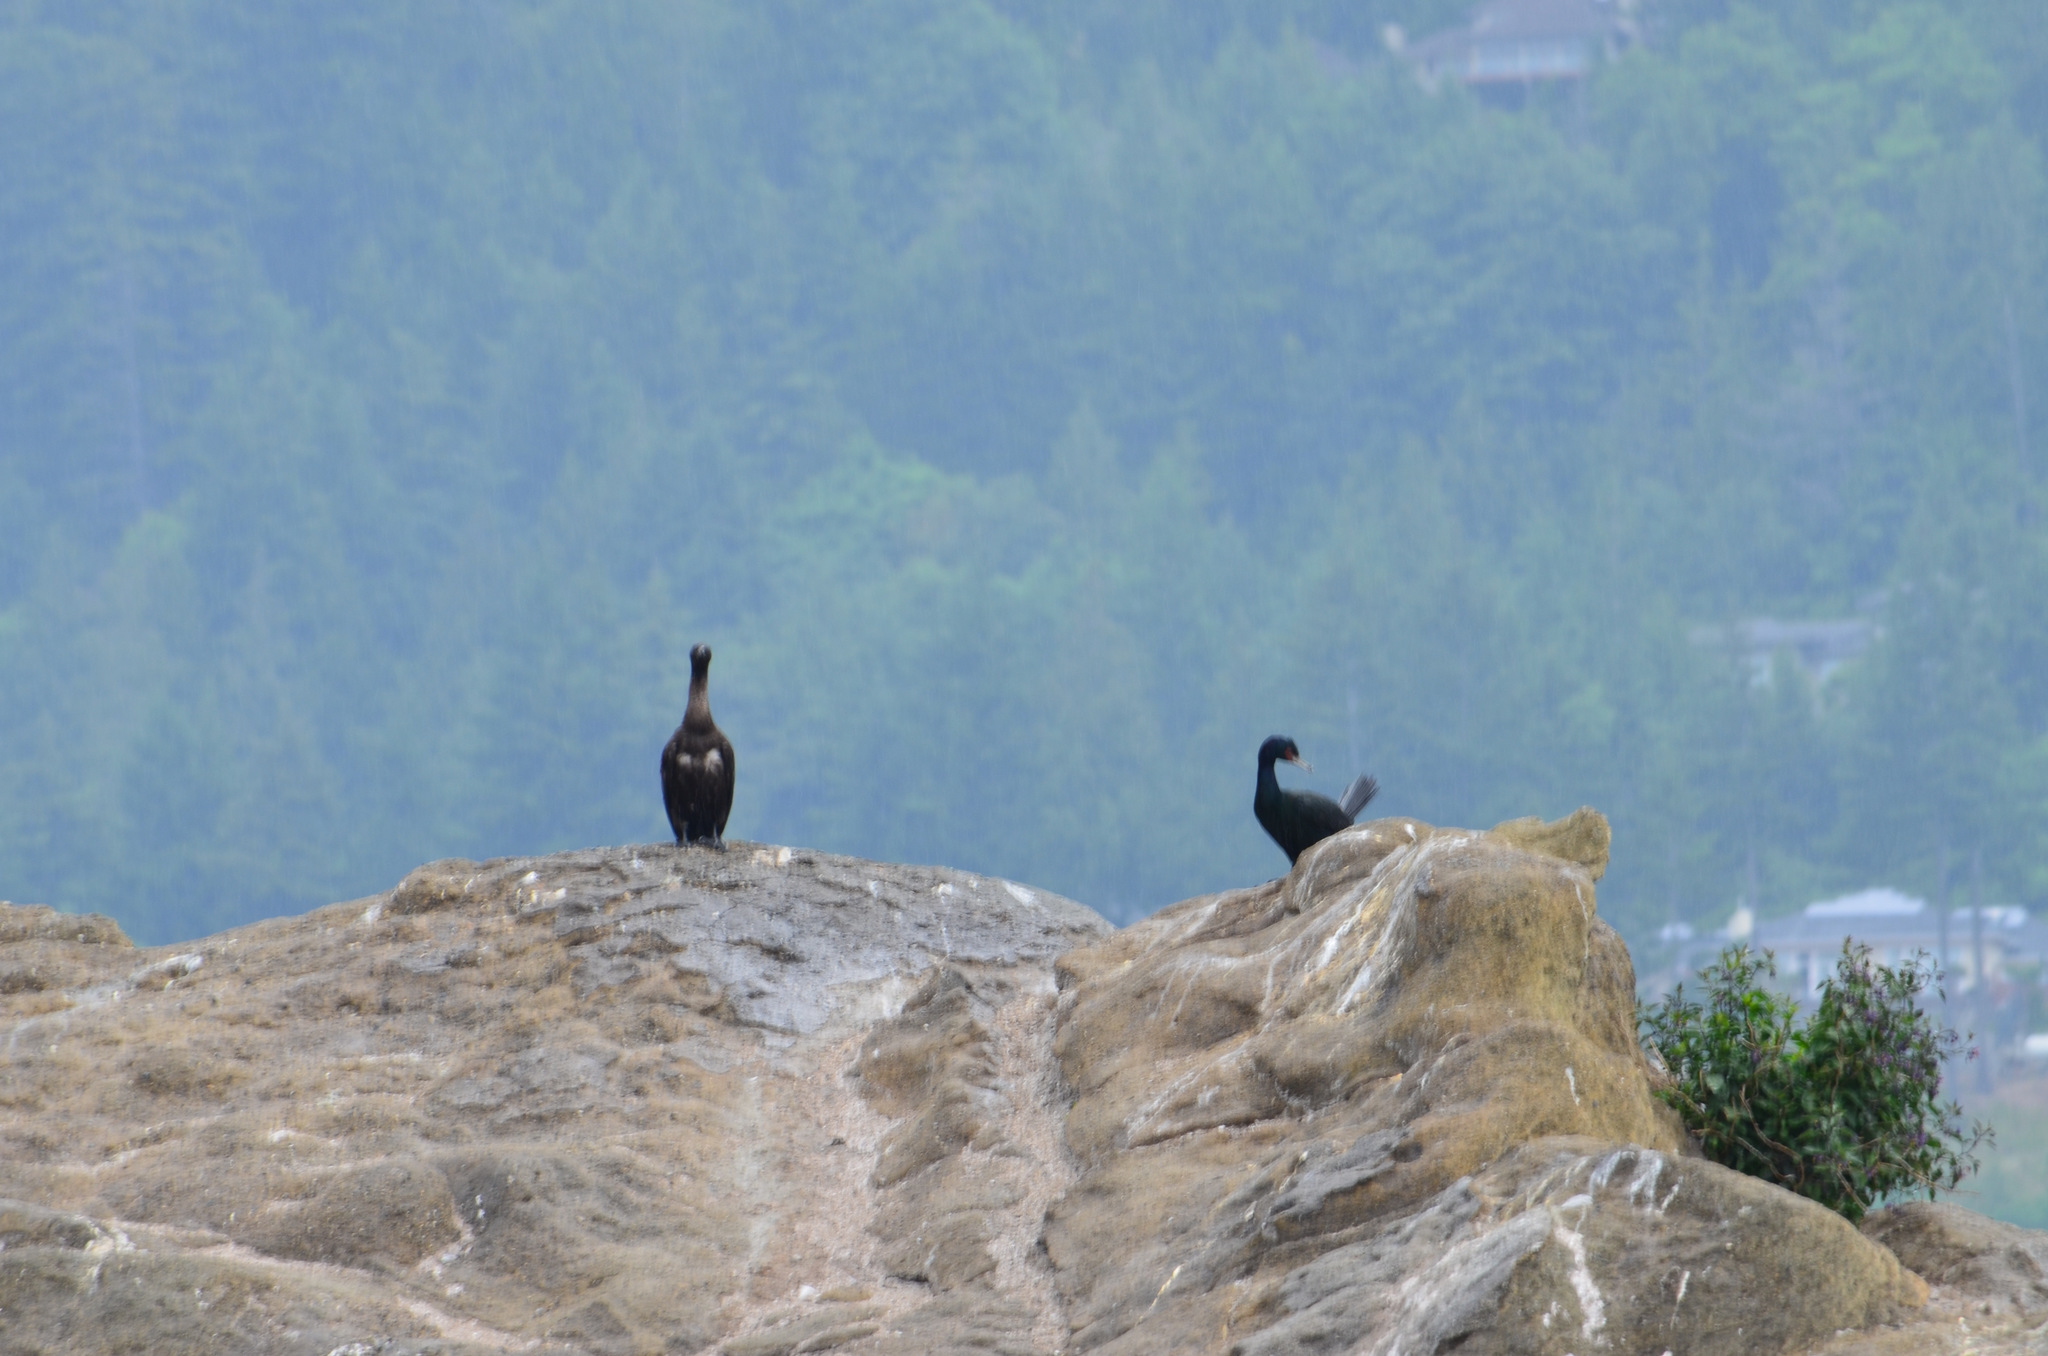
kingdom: Animalia
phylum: Chordata
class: Aves
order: Suliformes
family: Phalacrocoracidae
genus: Phalacrocorax
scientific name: Phalacrocorax pelagicus
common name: Pelagic cormorant
